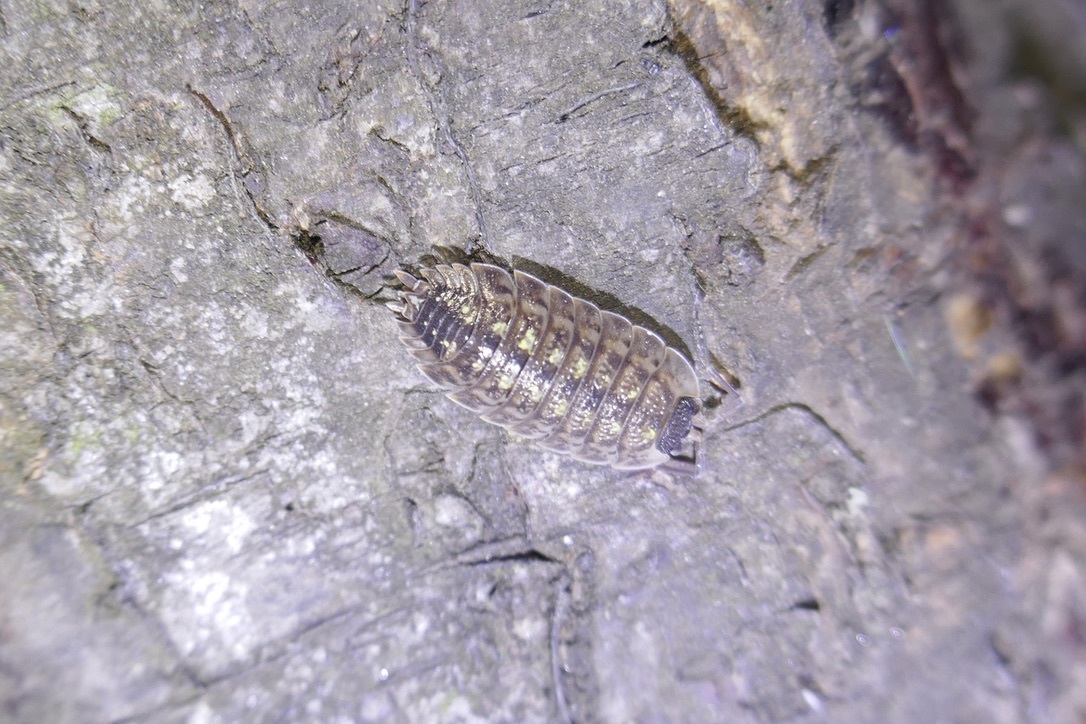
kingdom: Animalia
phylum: Arthropoda
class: Malacostraca
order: Isopoda
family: Porcellionidae
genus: Porcellio
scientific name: Porcellio spinicornis
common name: Painted woodlouse
